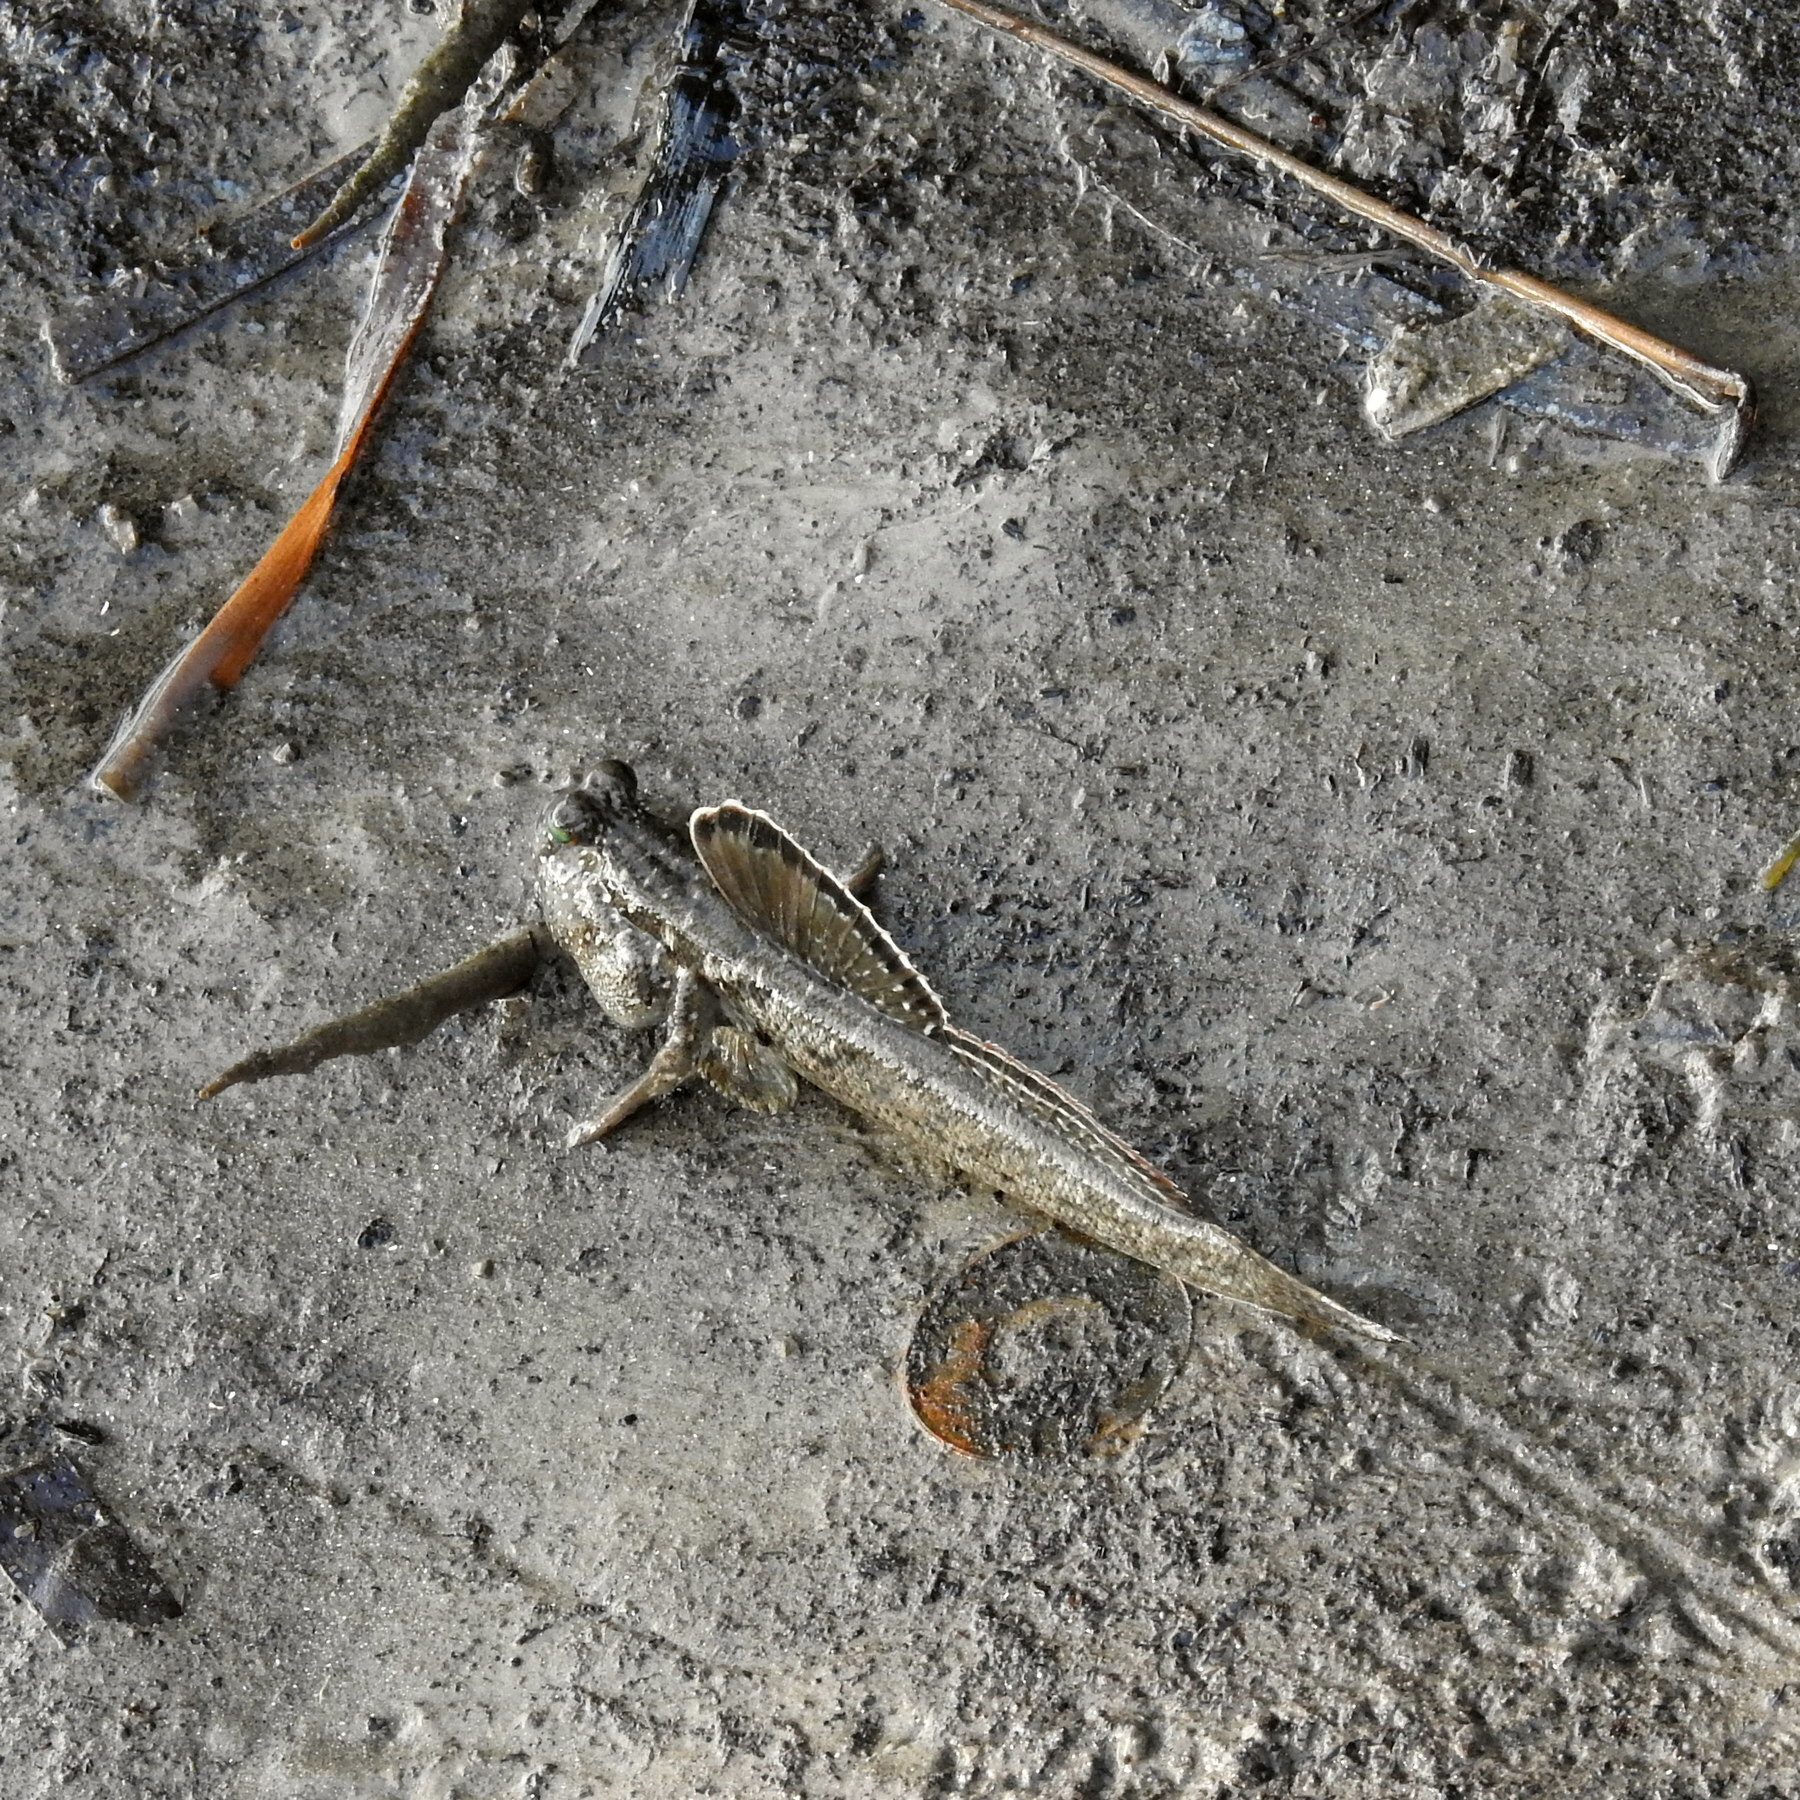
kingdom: Animalia
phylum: Chordata
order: Perciformes
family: Gobiidae
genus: Periophthalmus
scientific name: Periophthalmus argentilineatus
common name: Barred mudskipper
